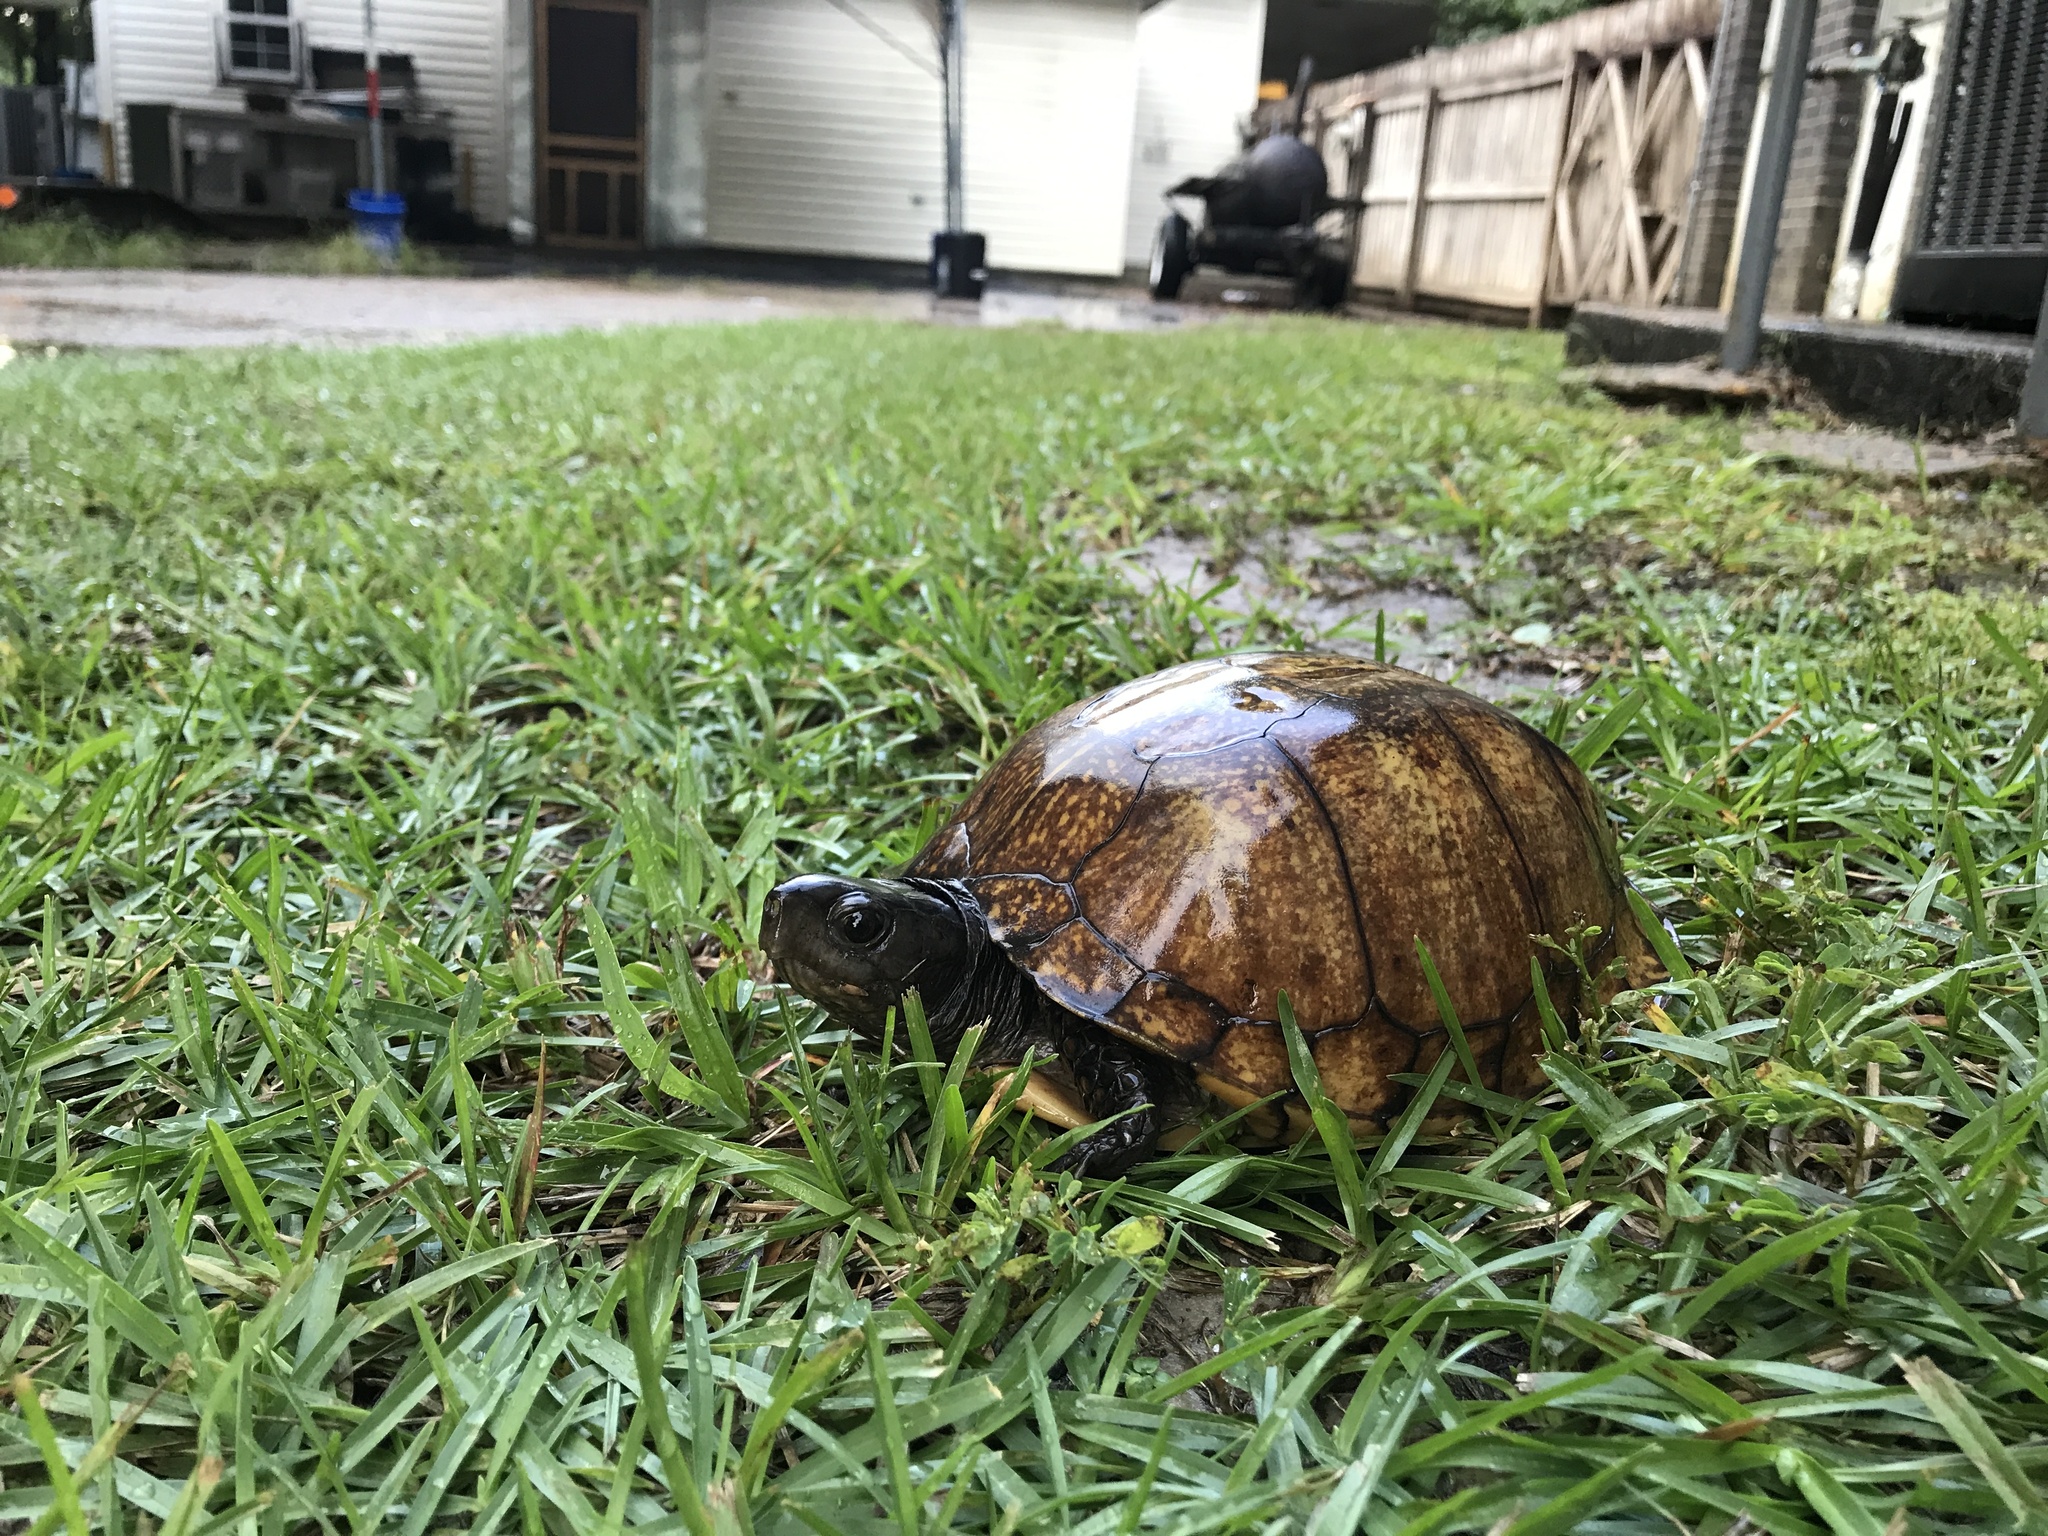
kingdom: Animalia
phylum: Chordata
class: Testudines
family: Emydidae
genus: Terrapene
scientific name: Terrapene carolina
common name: Common box turtle
